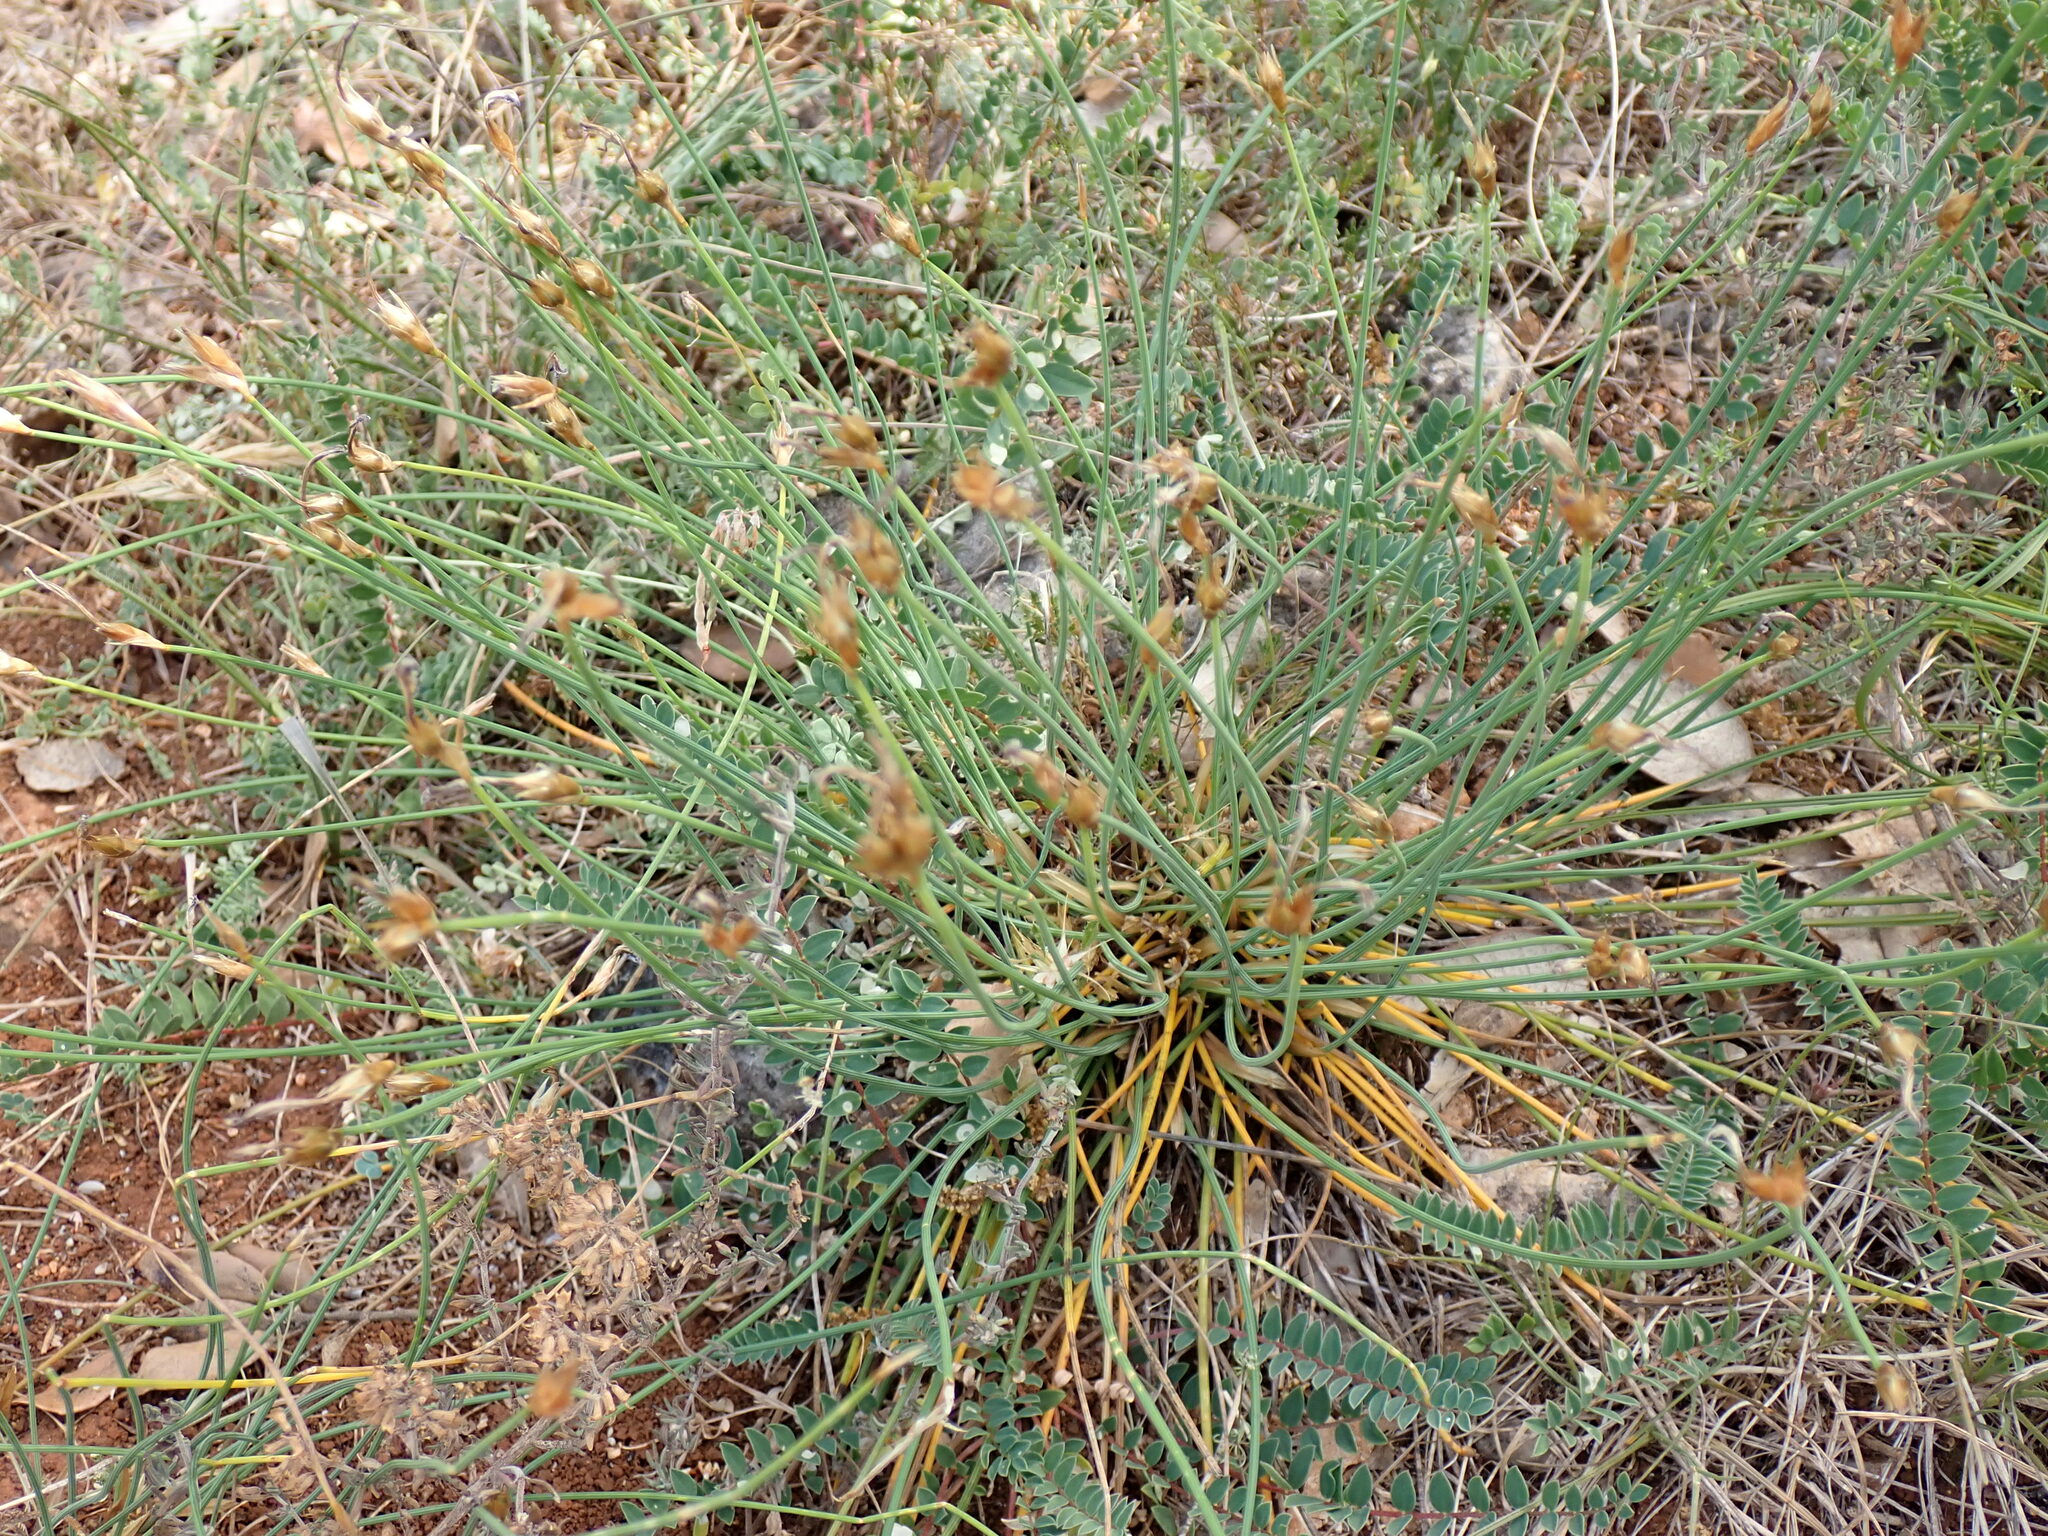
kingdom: Plantae
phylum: Tracheophyta
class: Liliopsida
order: Asparagales
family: Asparagaceae
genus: Aphyllanthes
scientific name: Aphyllanthes monspeliensis
